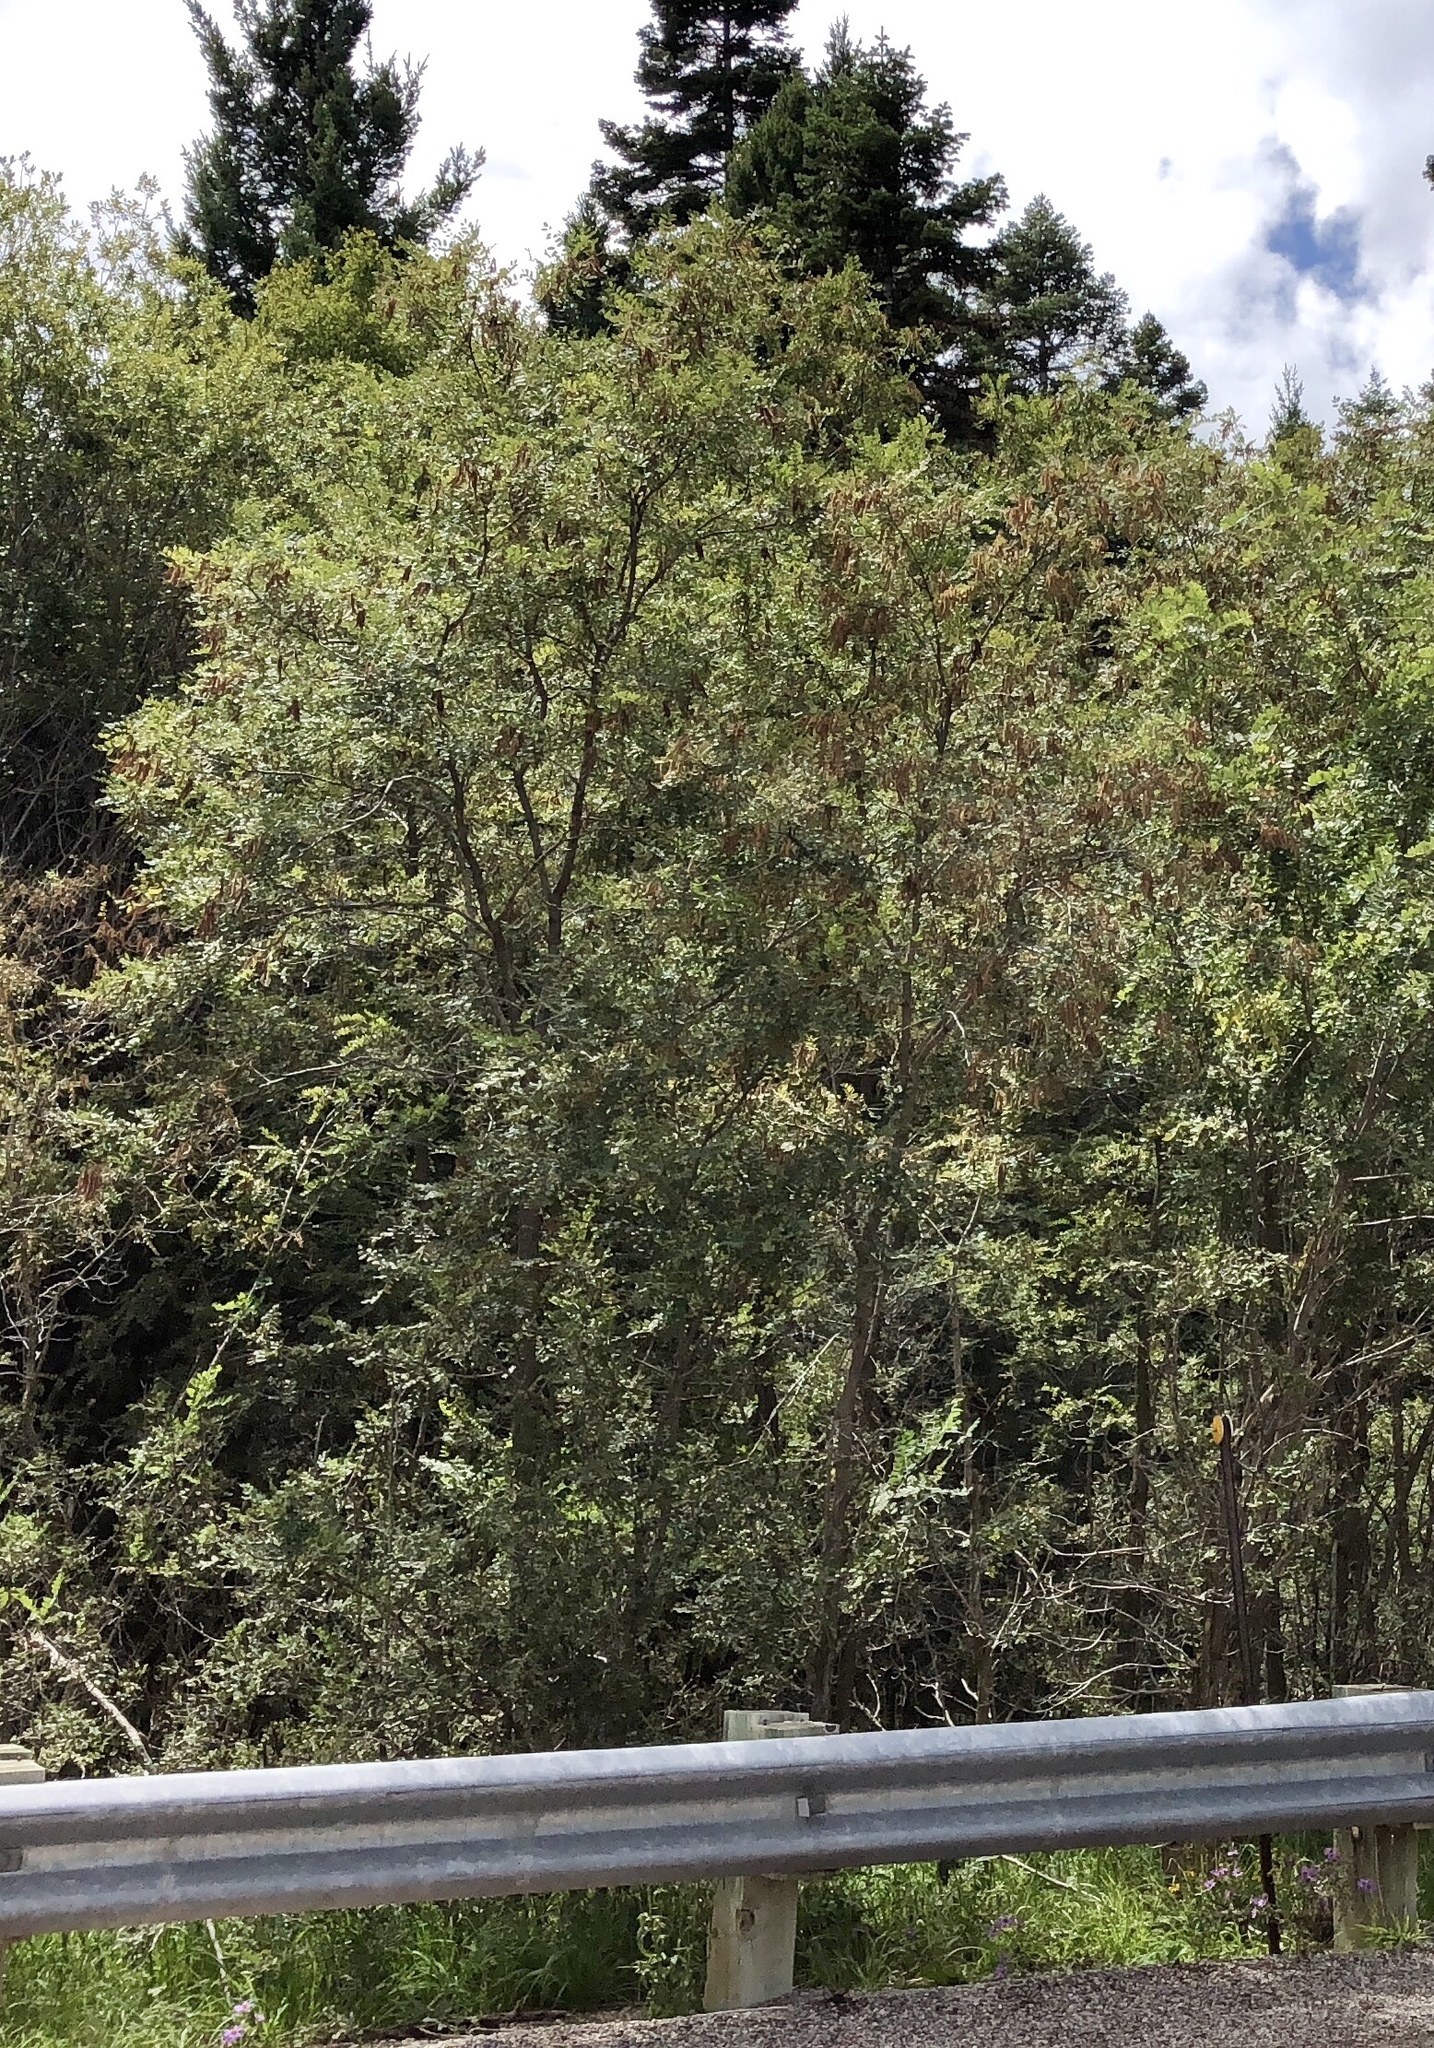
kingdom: Plantae
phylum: Tracheophyta
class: Magnoliopsida
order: Fabales
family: Fabaceae
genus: Robinia
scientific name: Robinia neomexicana
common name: New mexico locust
